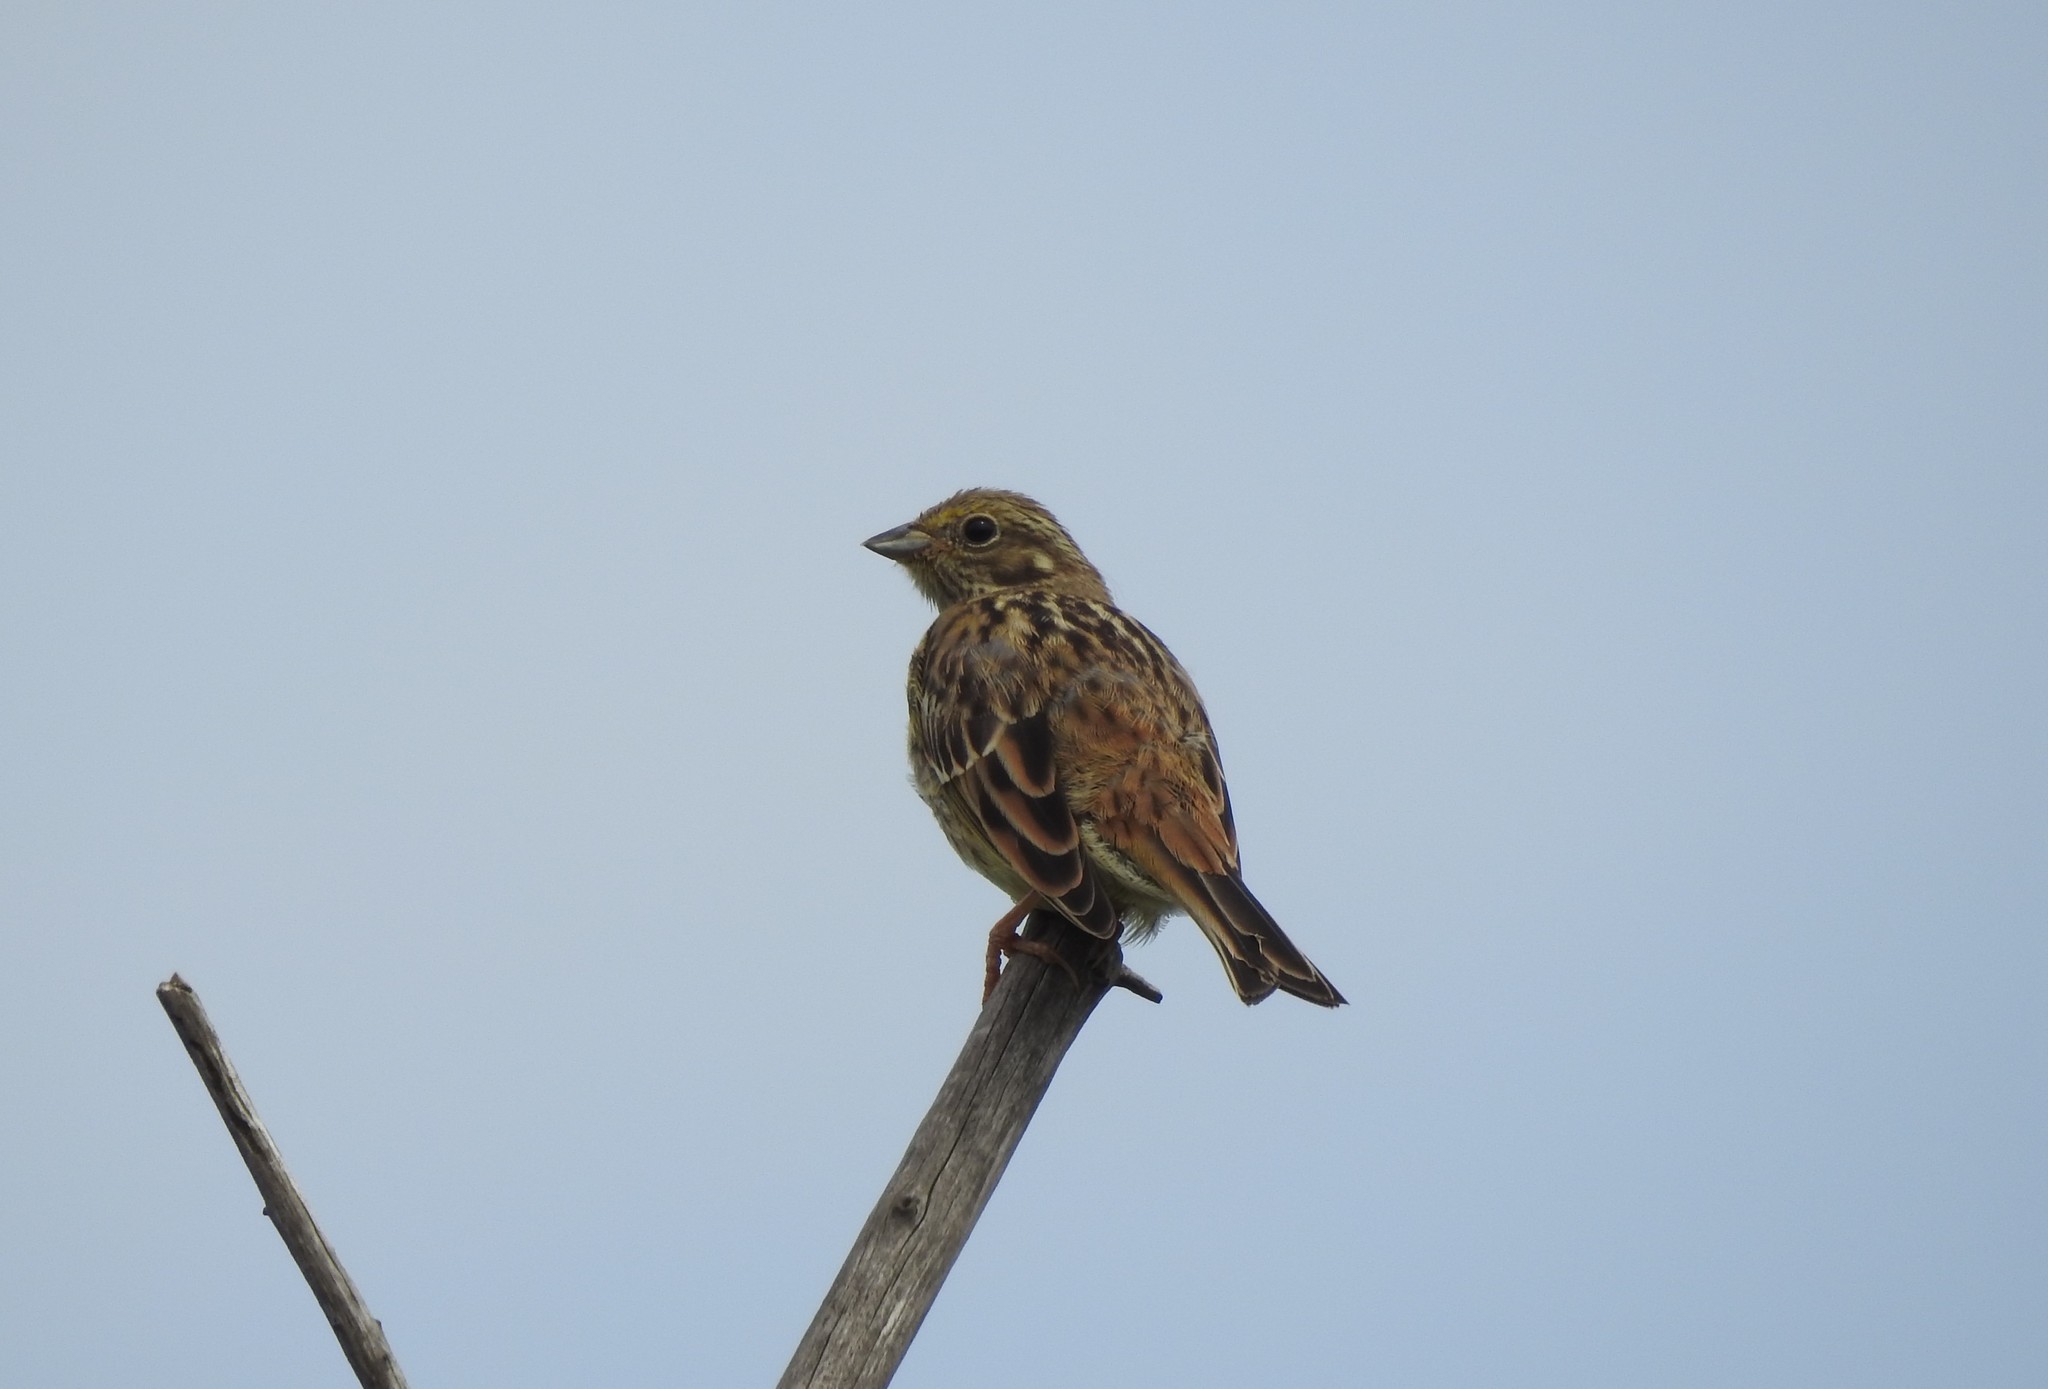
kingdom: Animalia
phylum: Chordata
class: Aves
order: Passeriformes
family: Emberizidae
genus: Emberiza
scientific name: Emberiza citrinella
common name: Yellowhammer
